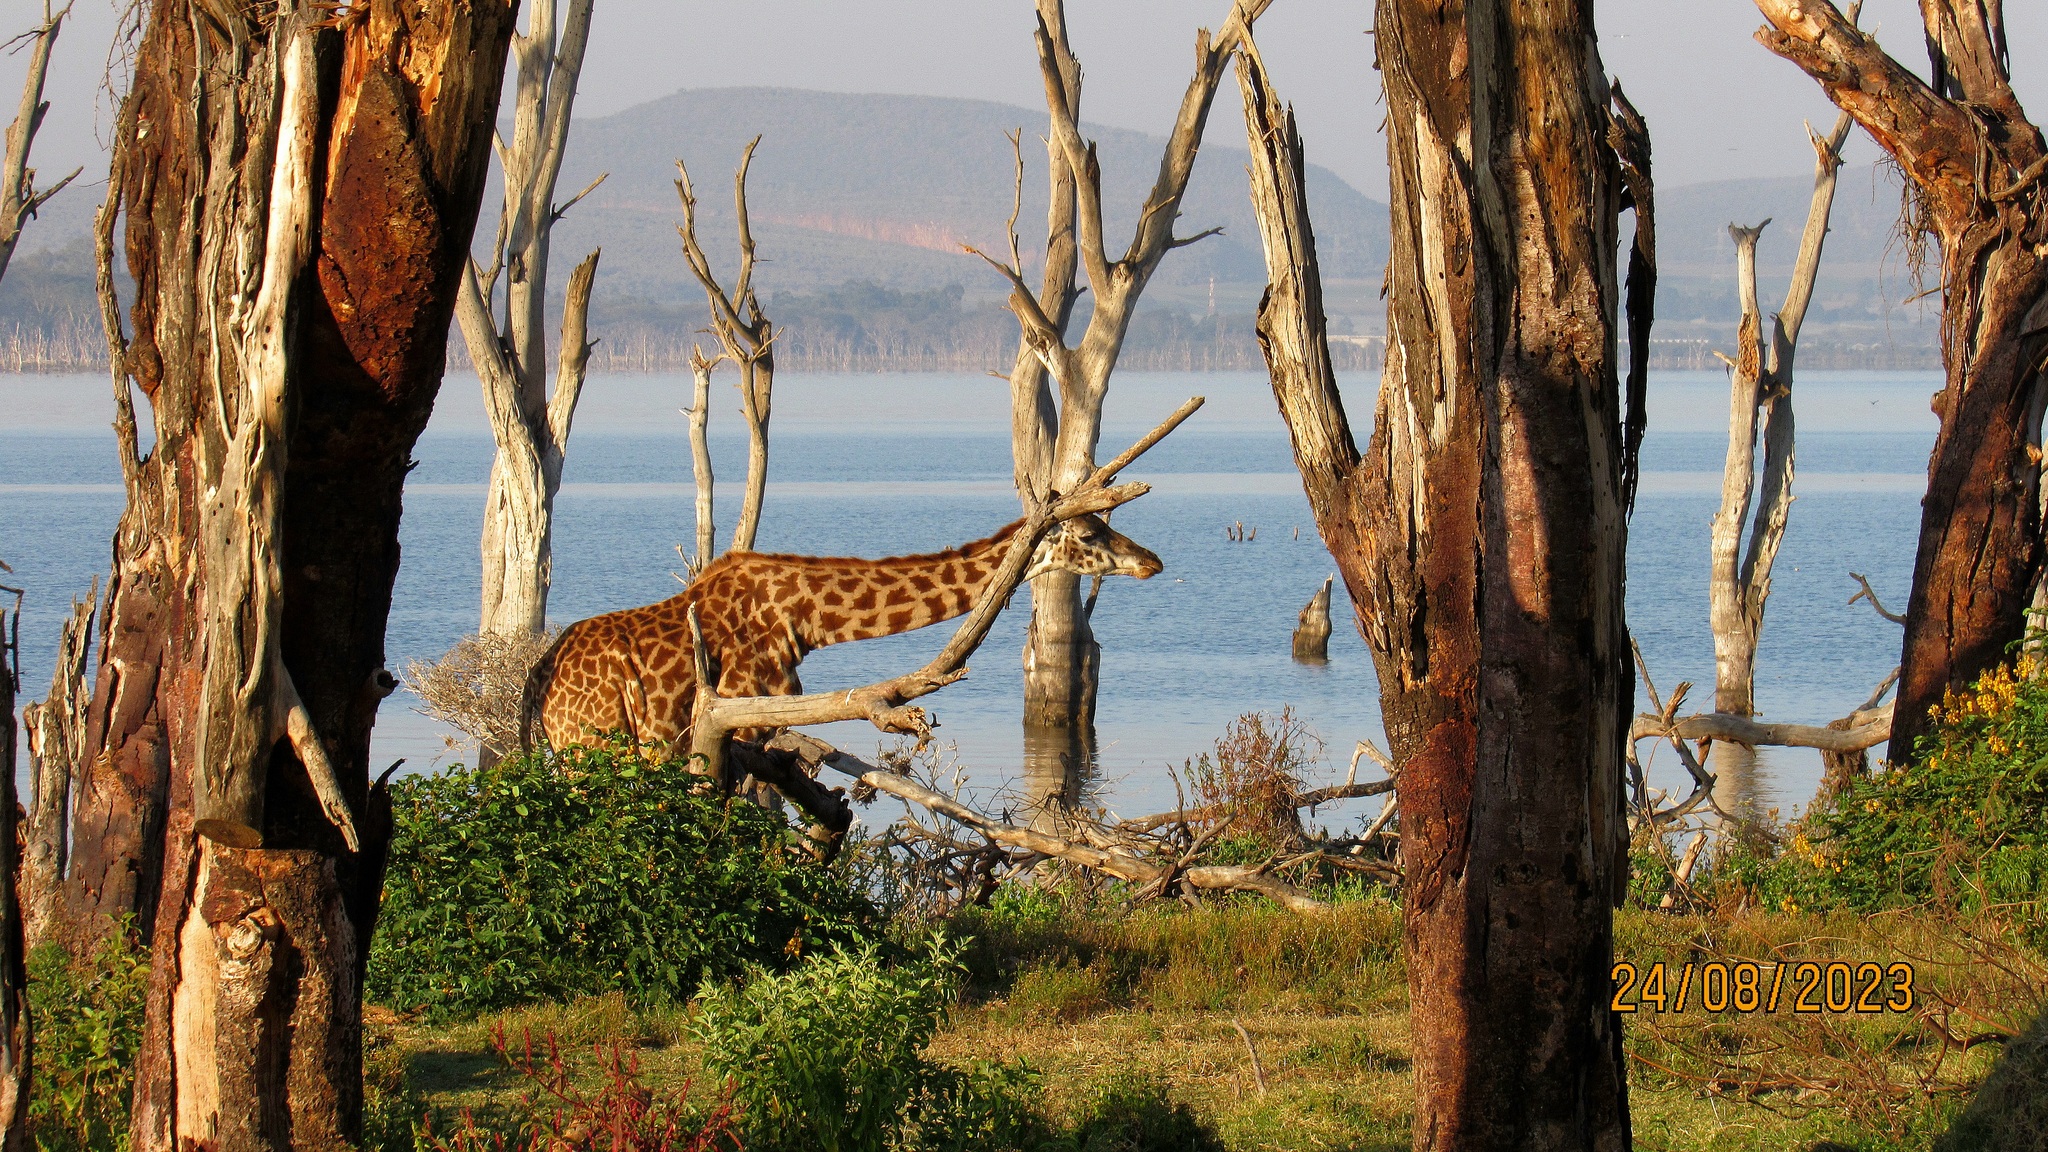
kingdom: Animalia
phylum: Chordata
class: Mammalia
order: Artiodactyla
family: Giraffidae
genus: Giraffa
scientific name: Giraffa tippelskirchi
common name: Masai giraffe
